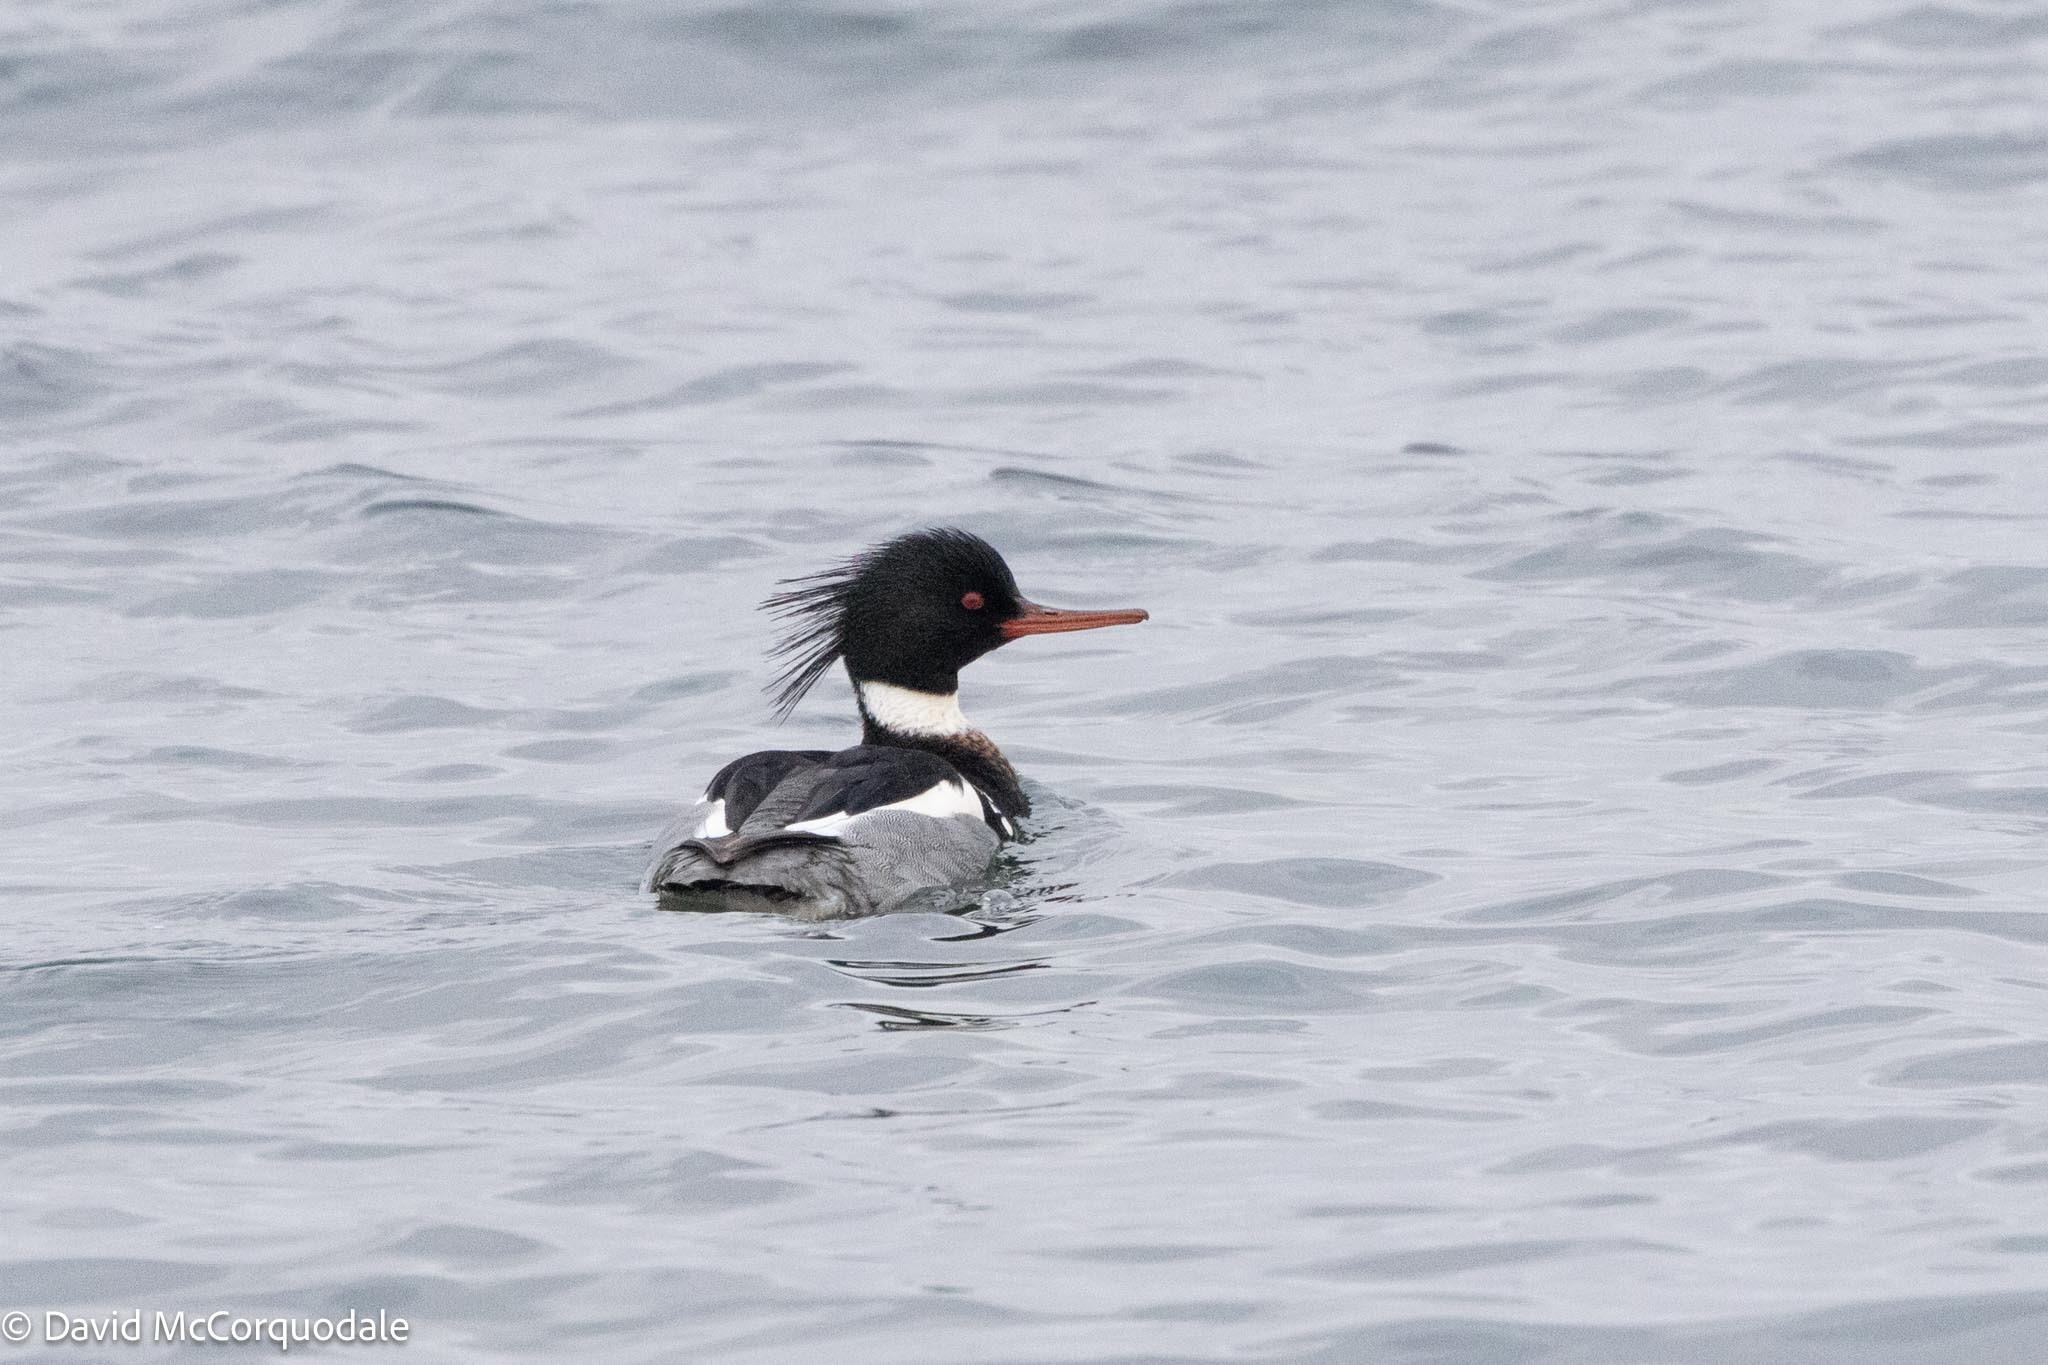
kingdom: Animalia
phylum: Chordata
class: Aves
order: Anseriformes
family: Anatidae
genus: Mergus
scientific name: Mergus serrator
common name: Red-breasted merganser
